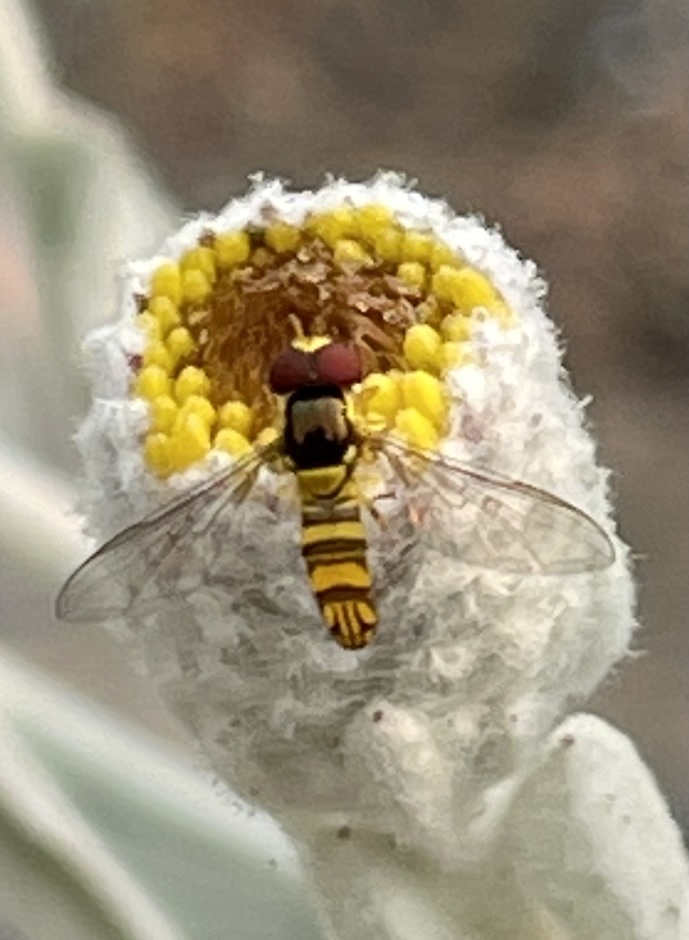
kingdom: Animalia
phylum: Arthropoda
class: Insecta
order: Diptera
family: Syrphidae
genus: Allograpta
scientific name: Allograpta obliqua
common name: Common oblique syrphid
